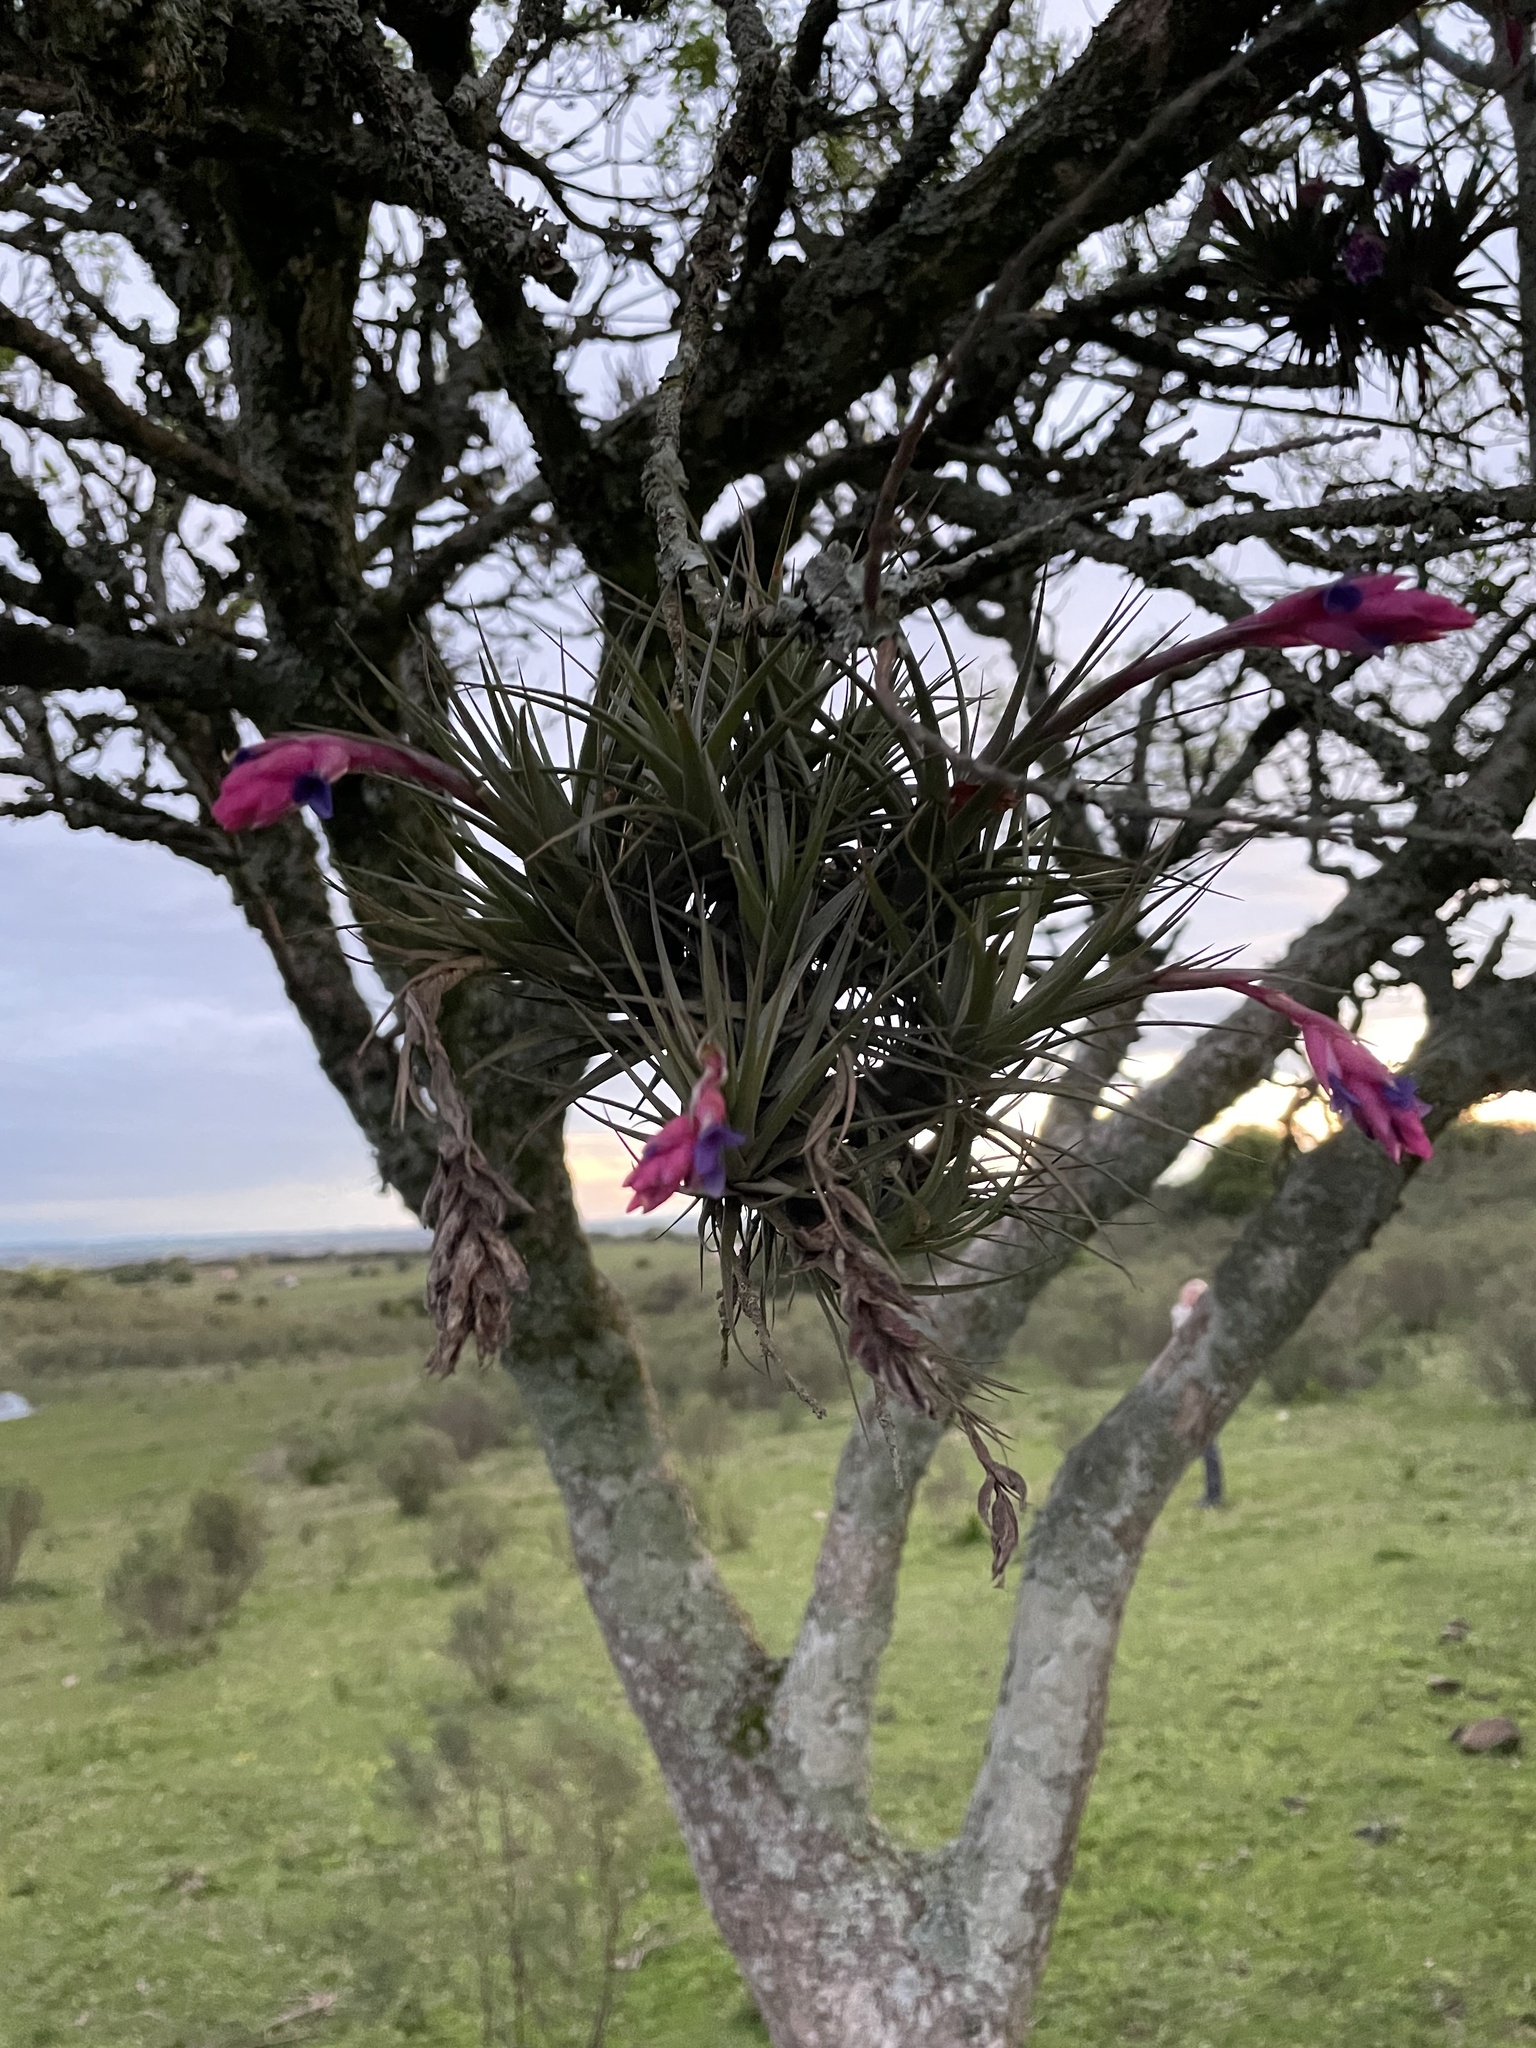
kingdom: Plantae
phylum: Tracheophyta
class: Liliopsida
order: Poales
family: Bromeliaceae
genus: Tillandsia
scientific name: Tillandsia aeranthos
